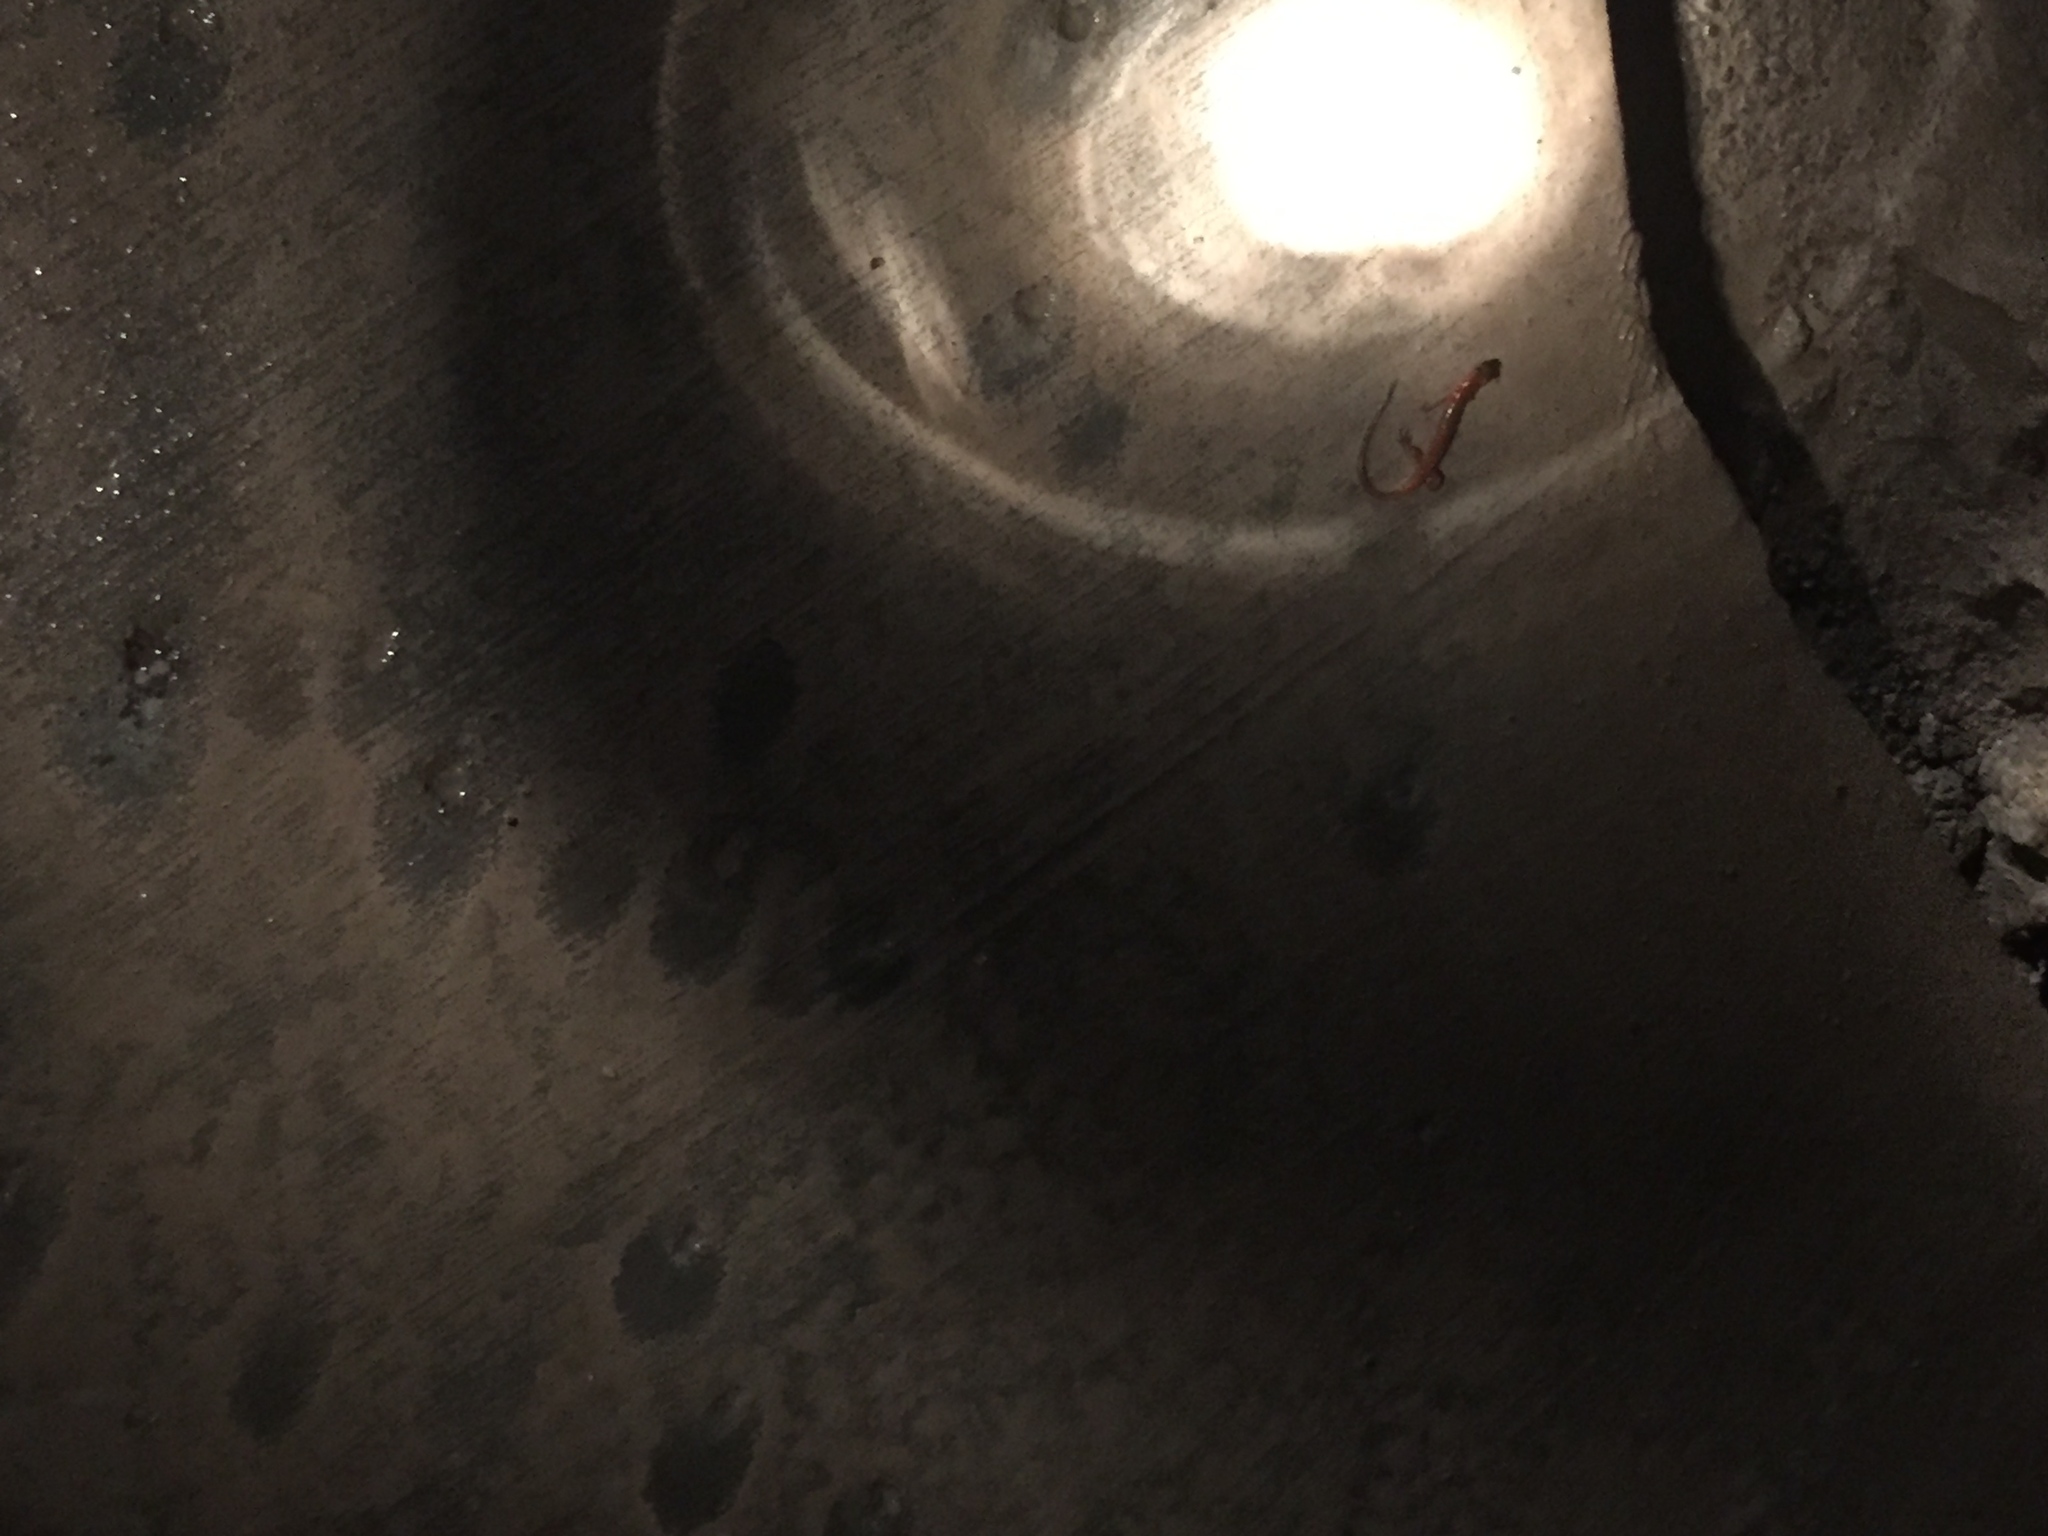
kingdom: Animalia
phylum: Chordata
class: Amphibia
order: Caudata
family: Plethodontidae
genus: Eurycea
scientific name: Eurycea lucifuga
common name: Cave salamander
